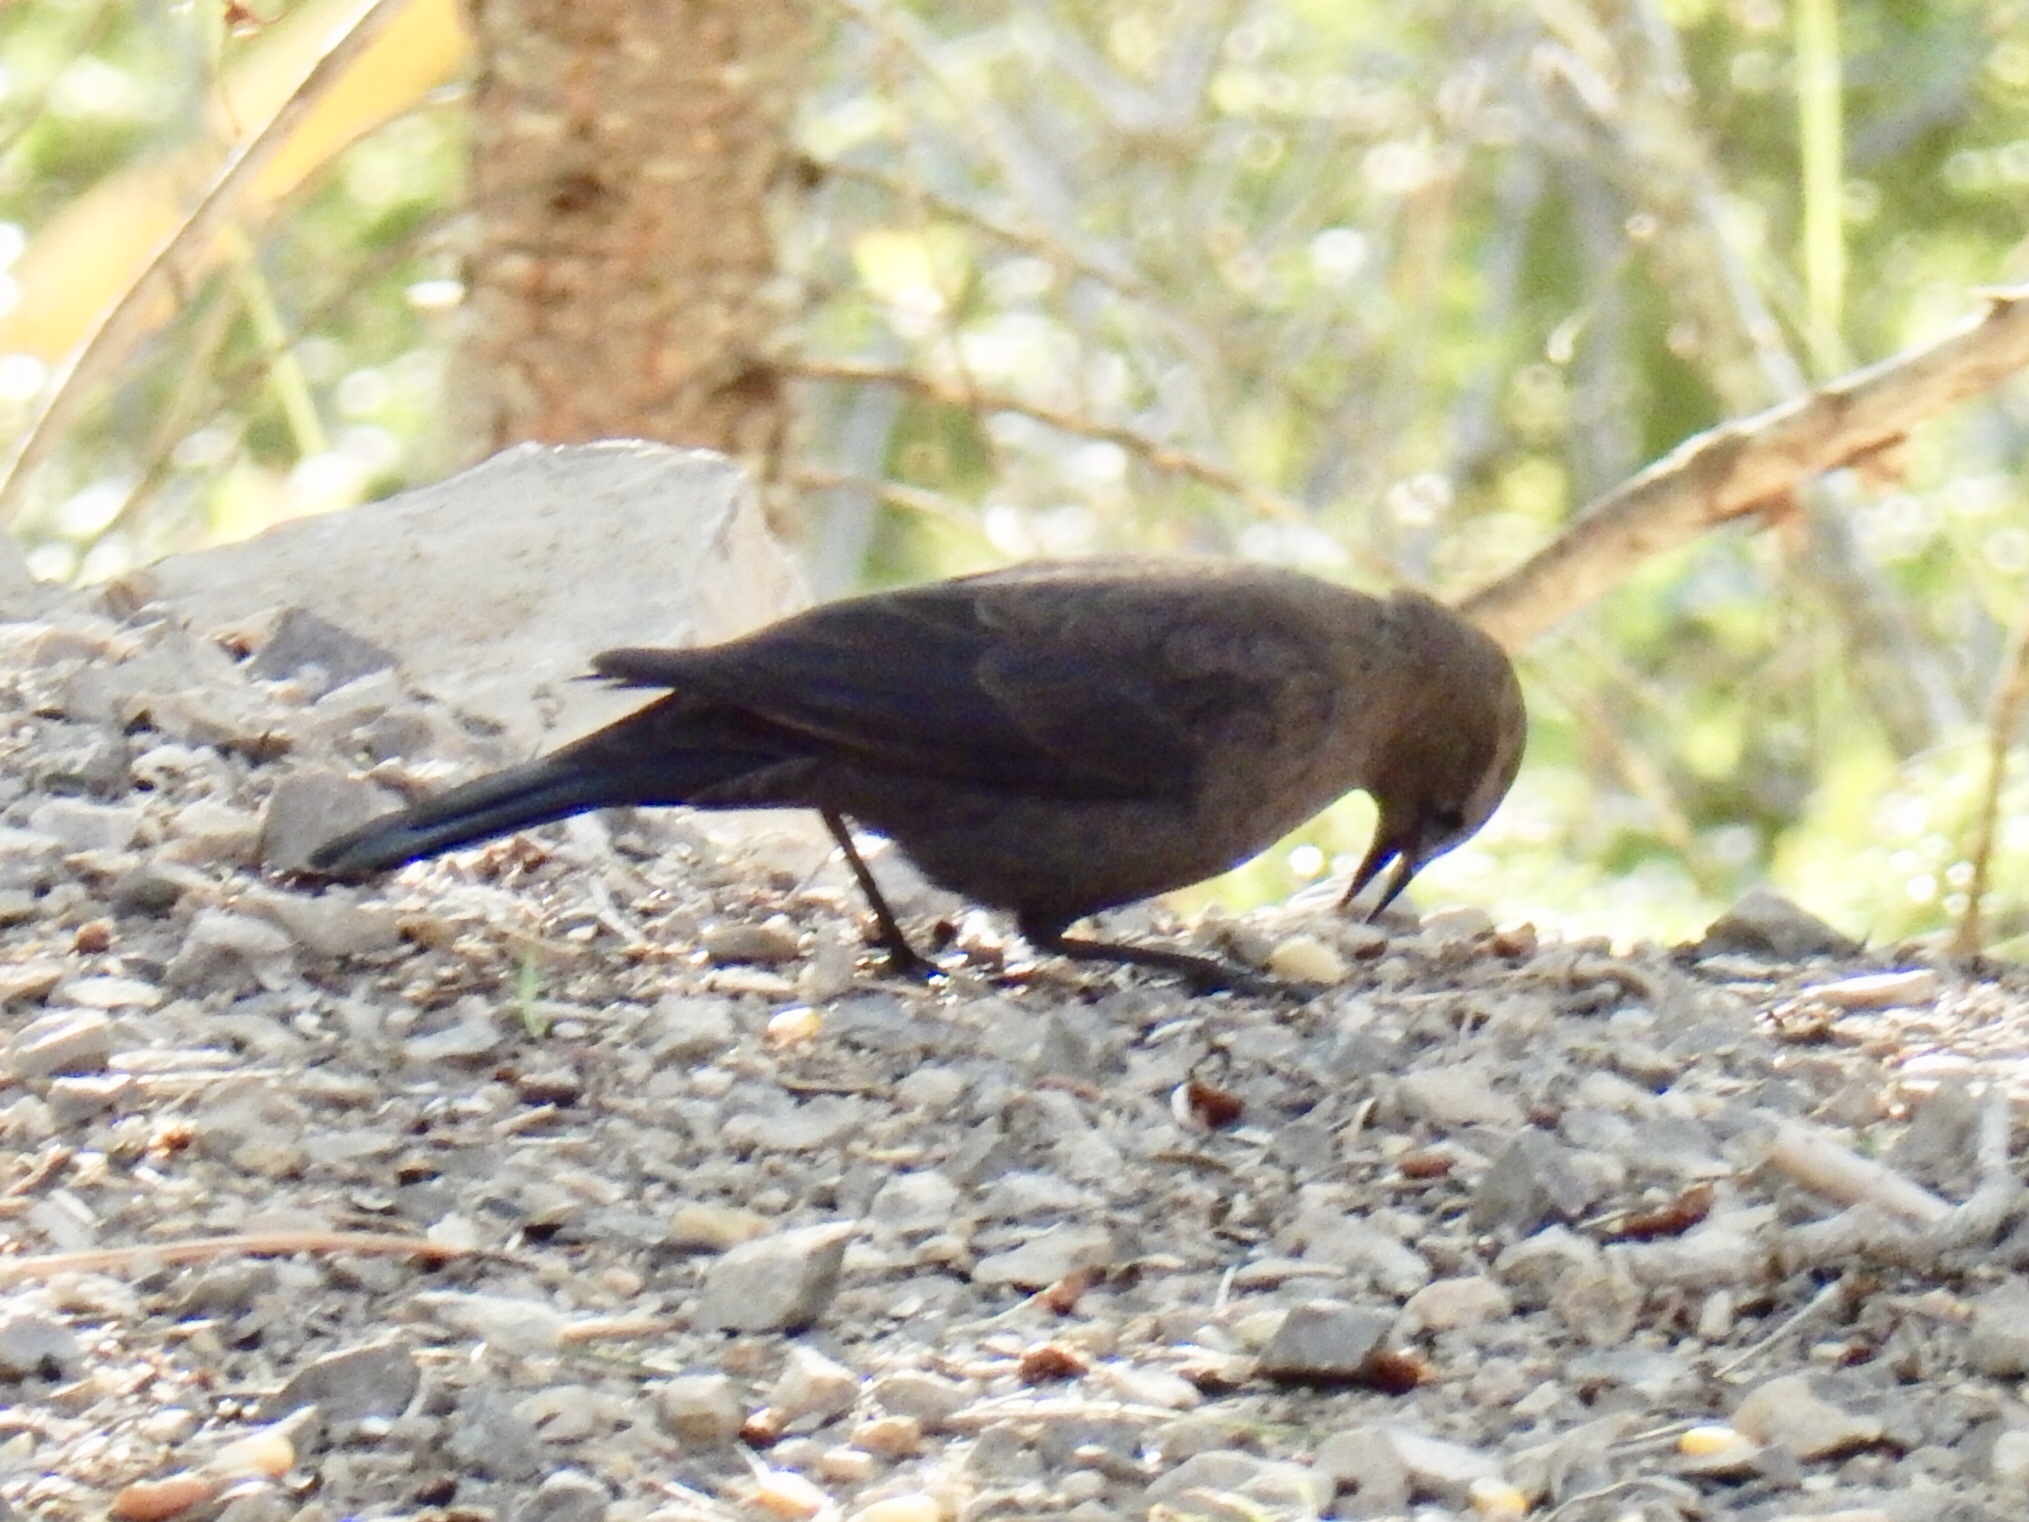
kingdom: Animalia
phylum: Chordata
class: Aves
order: Passeriformes
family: Icteridae
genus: Euphagus
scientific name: Euphagus cyanocephalus
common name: Brewer's blackbird
